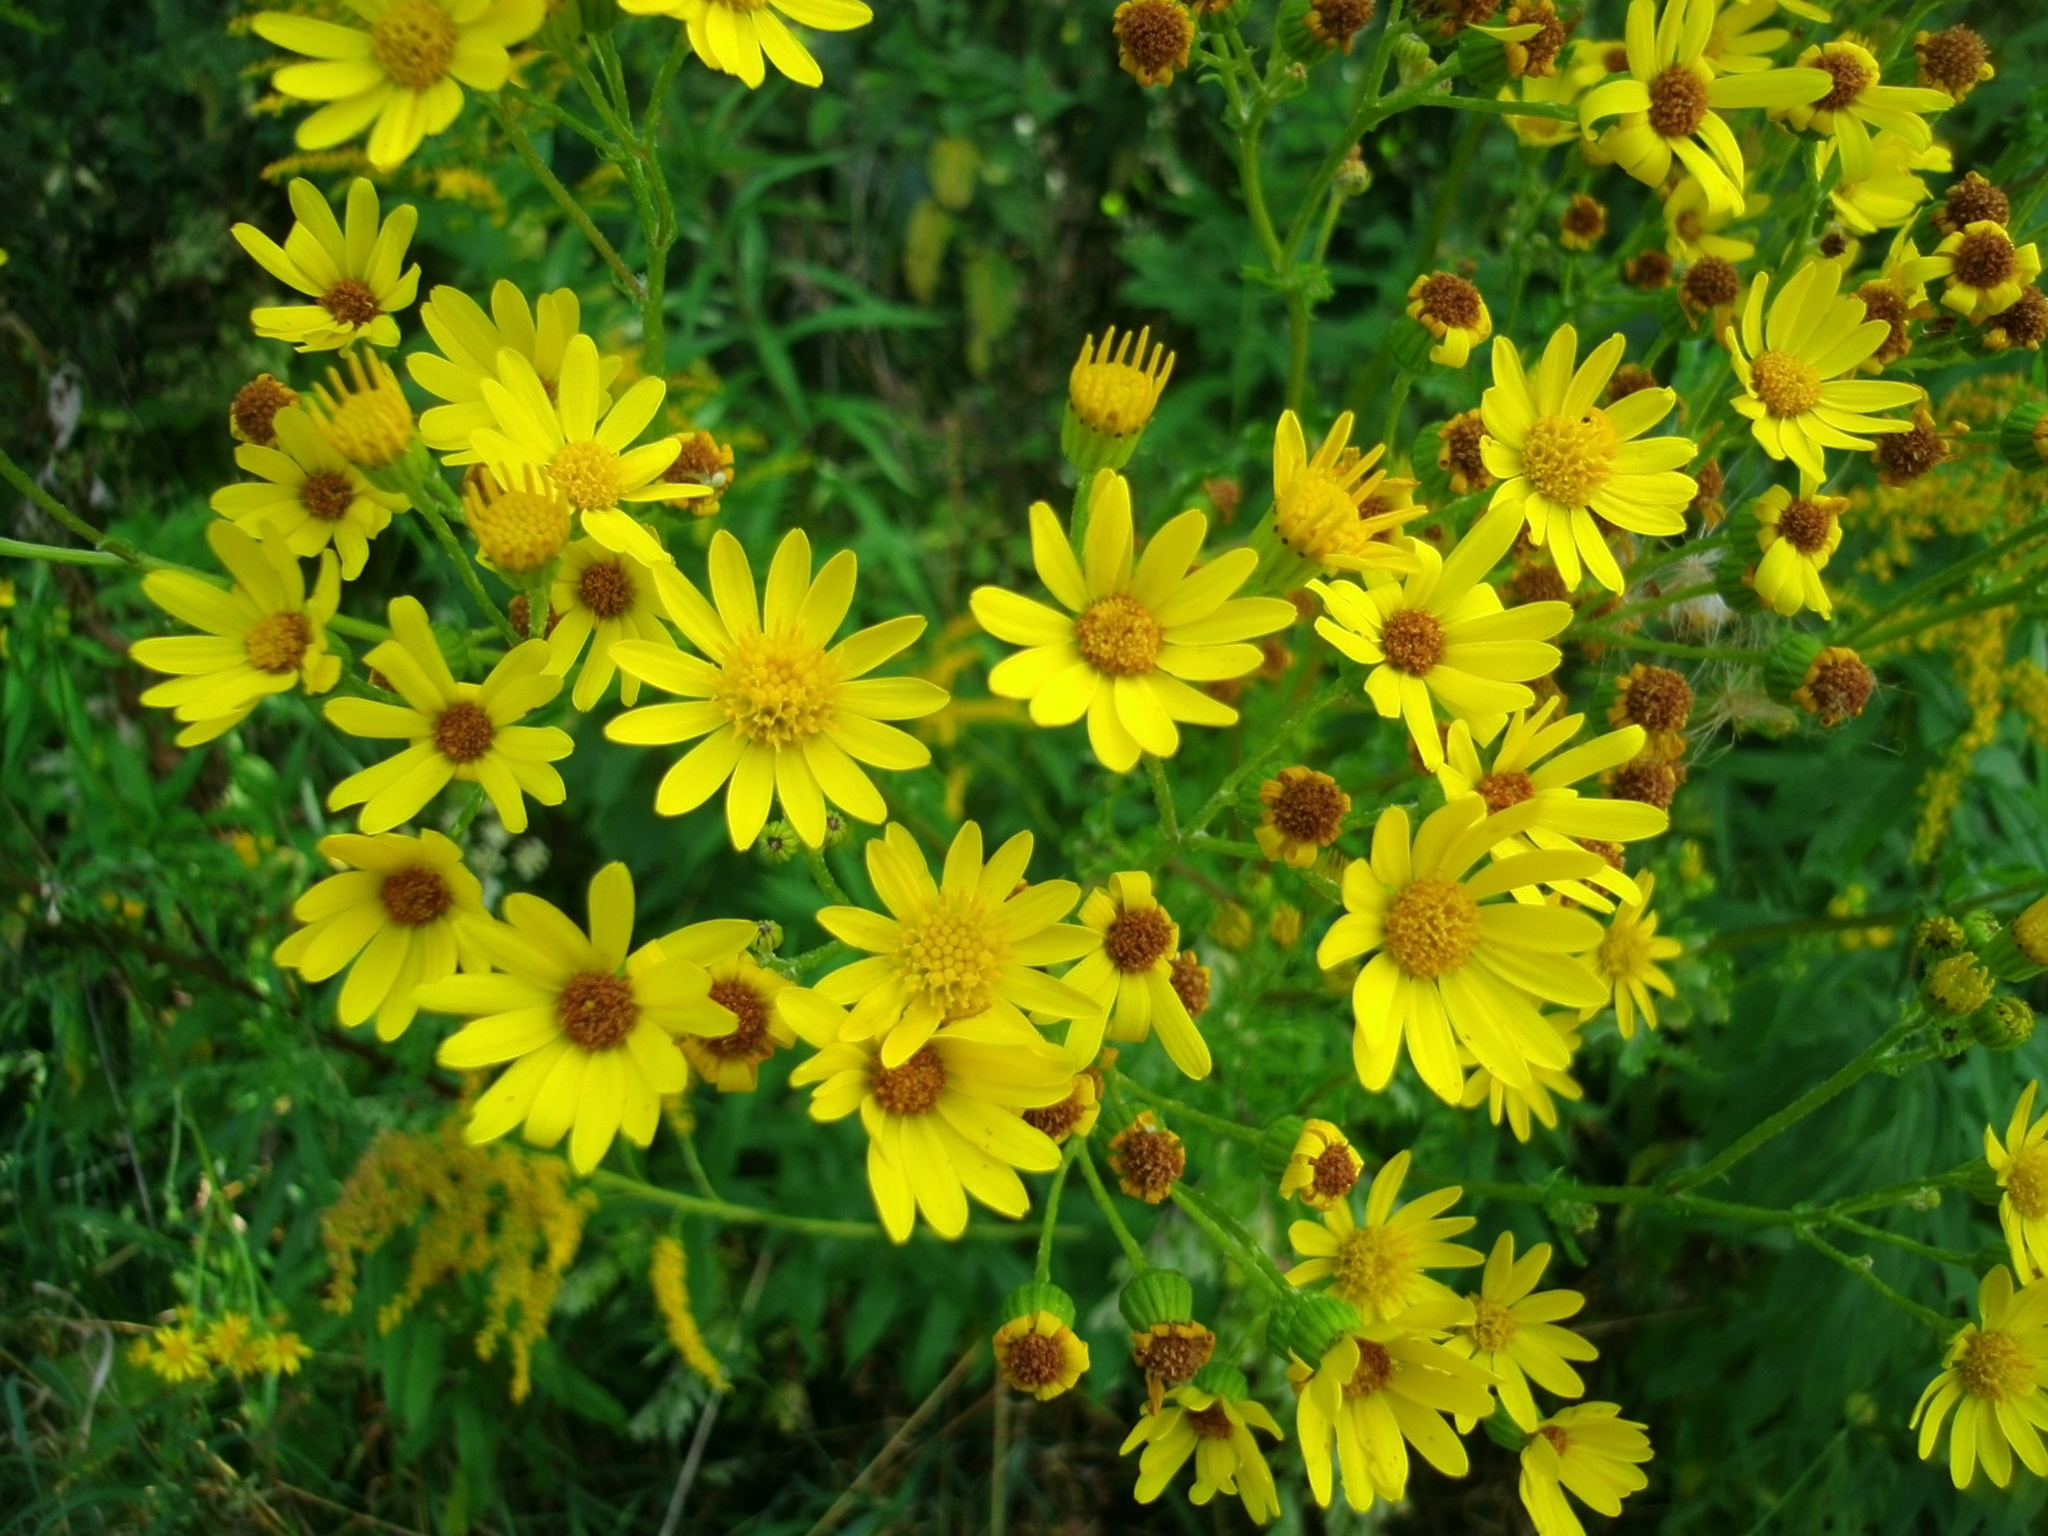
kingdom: Plantae
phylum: Tracheophyta
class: Magnoliopsida
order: Asterales
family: Asteraceae
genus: Senecio
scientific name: Senecio inaequidens
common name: Narrow-leaved ragwort
